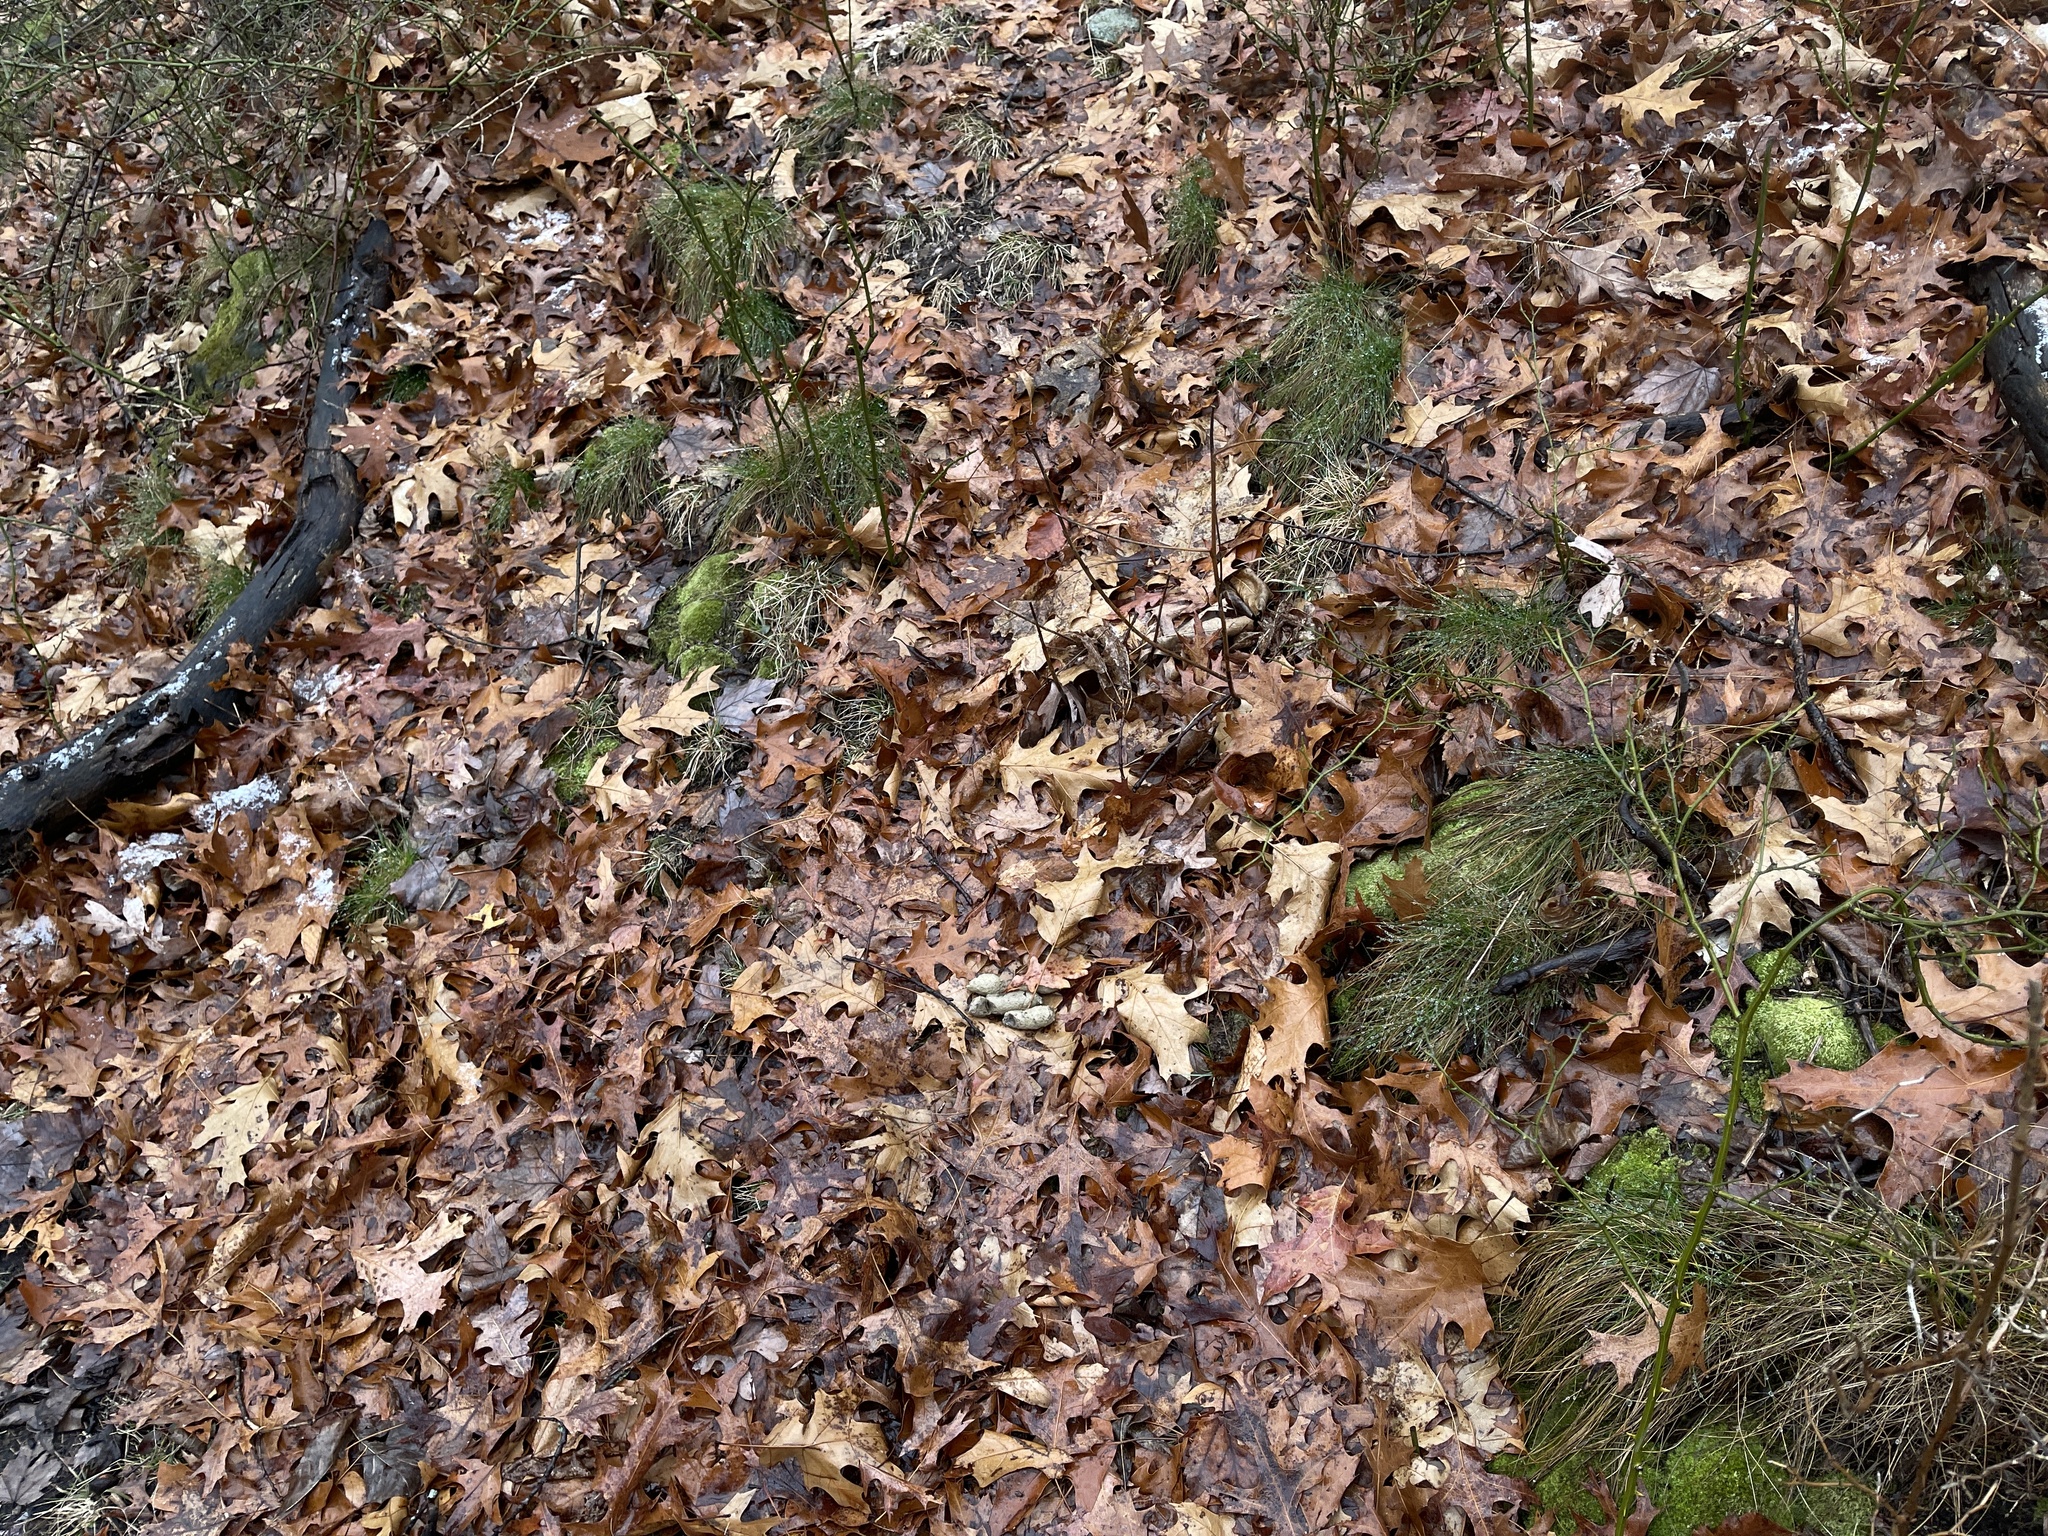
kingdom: Plantae
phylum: Tracheophyta
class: Liliopsida
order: Poales
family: Poaceae
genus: Avenella
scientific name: Avenella flexuosa
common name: Wavy hairgrass
